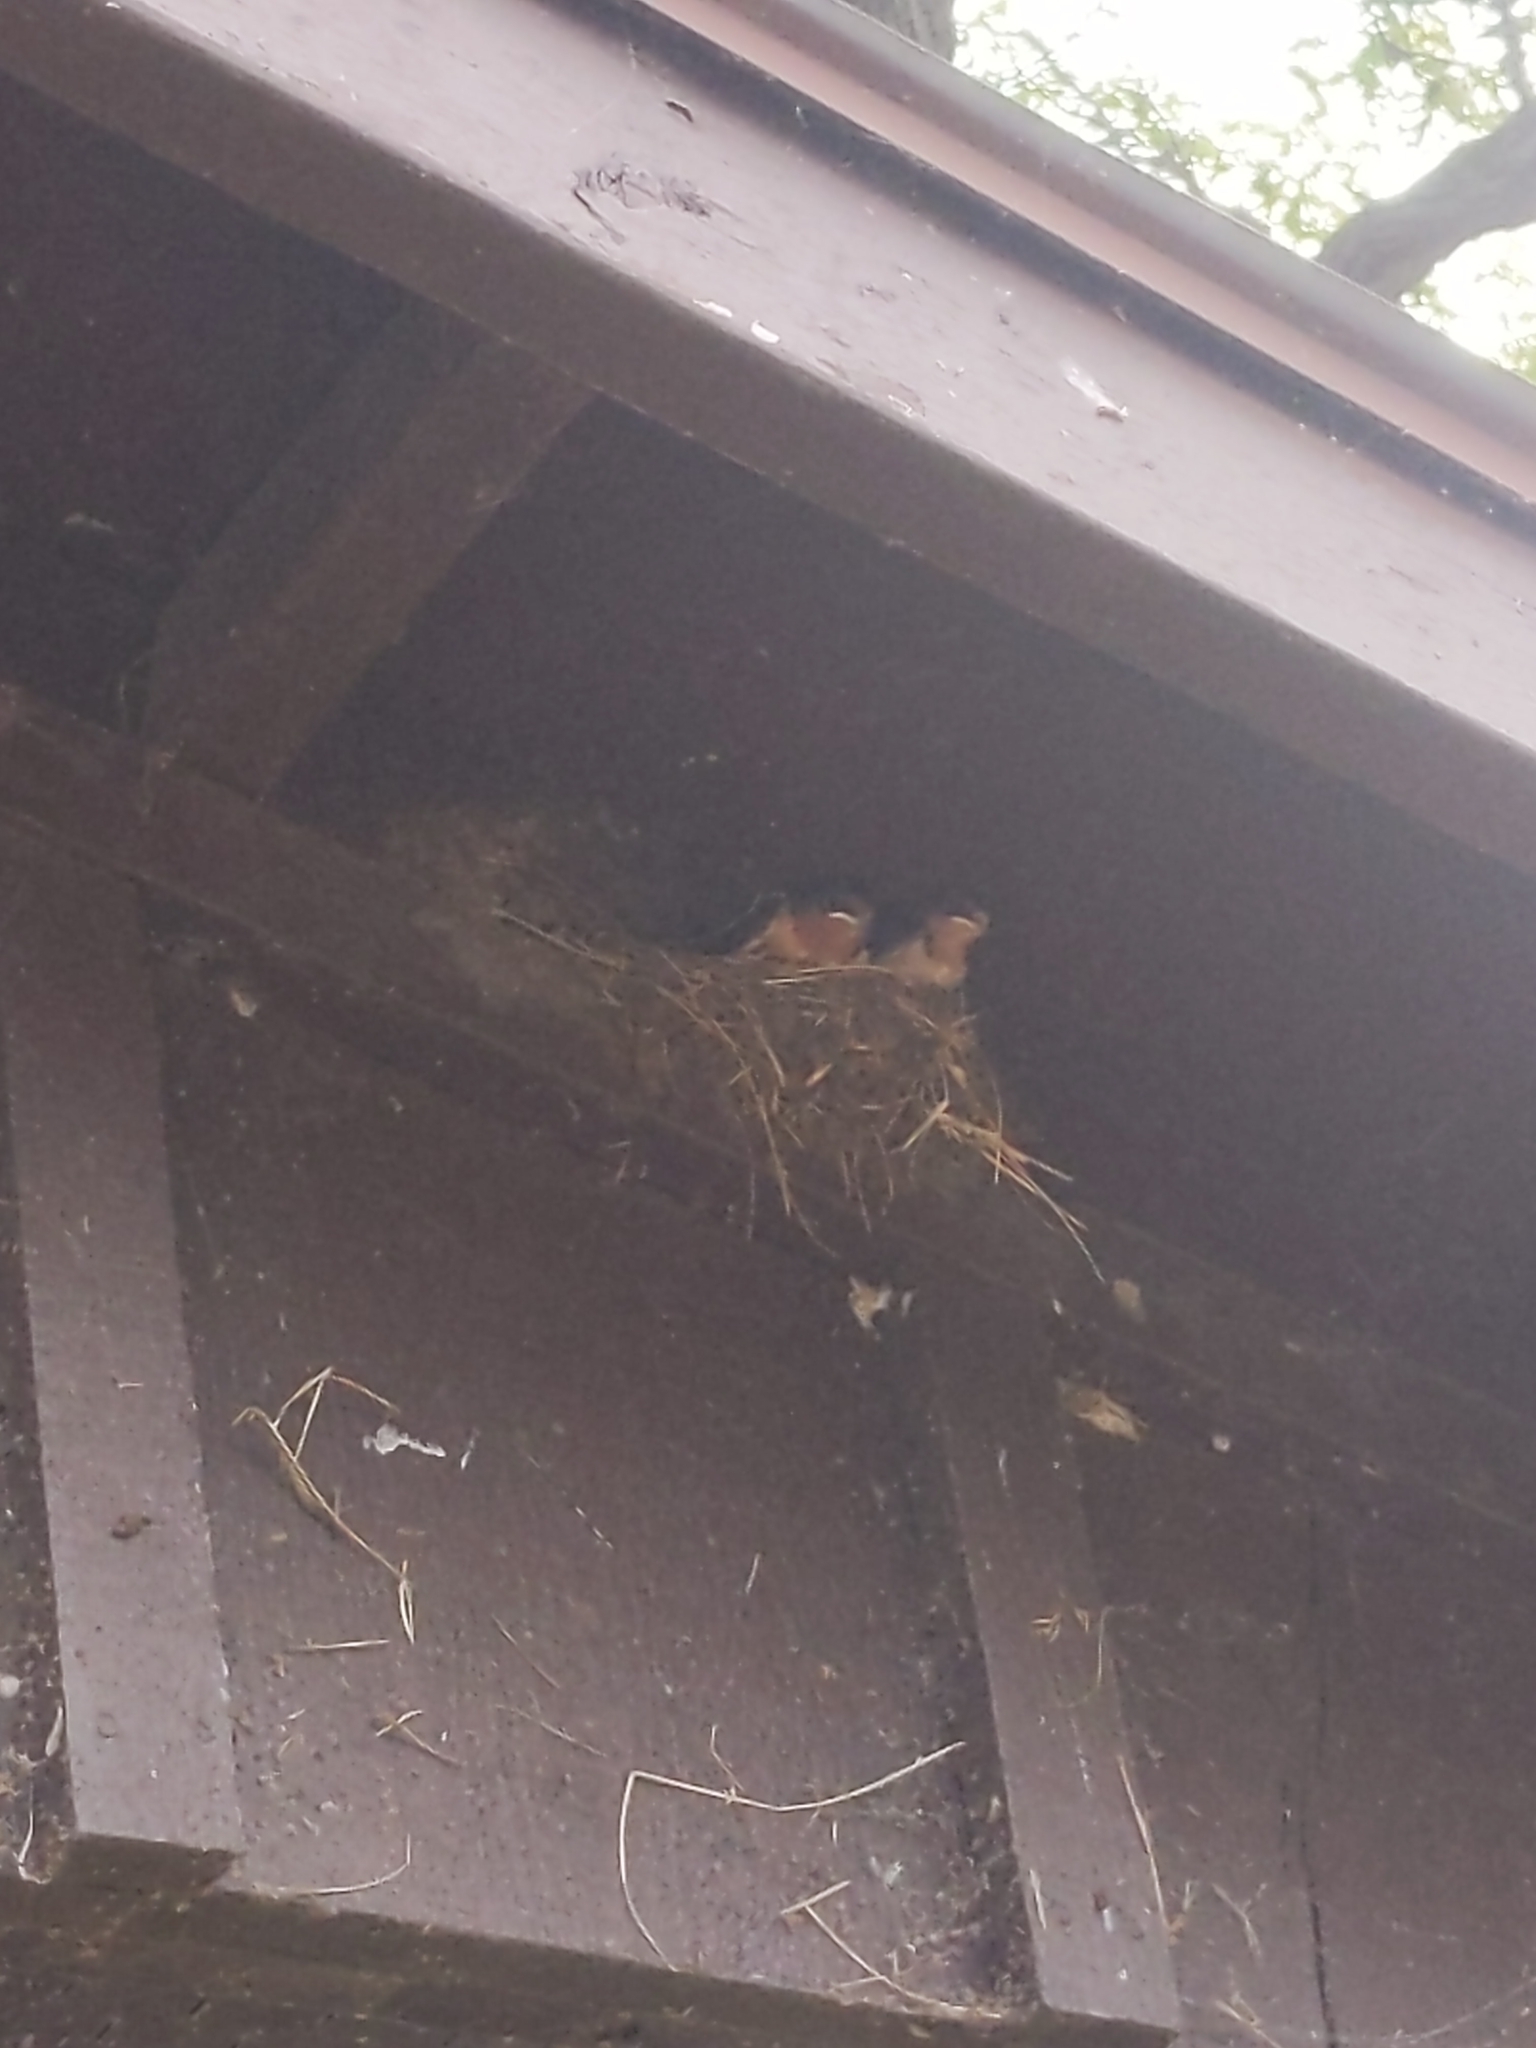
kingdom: Animalia
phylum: Chordata
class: Aves
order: Passeriformes
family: Hirundinidae
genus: Hirundo
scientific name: Hirundo rustica
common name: Barn swallow
